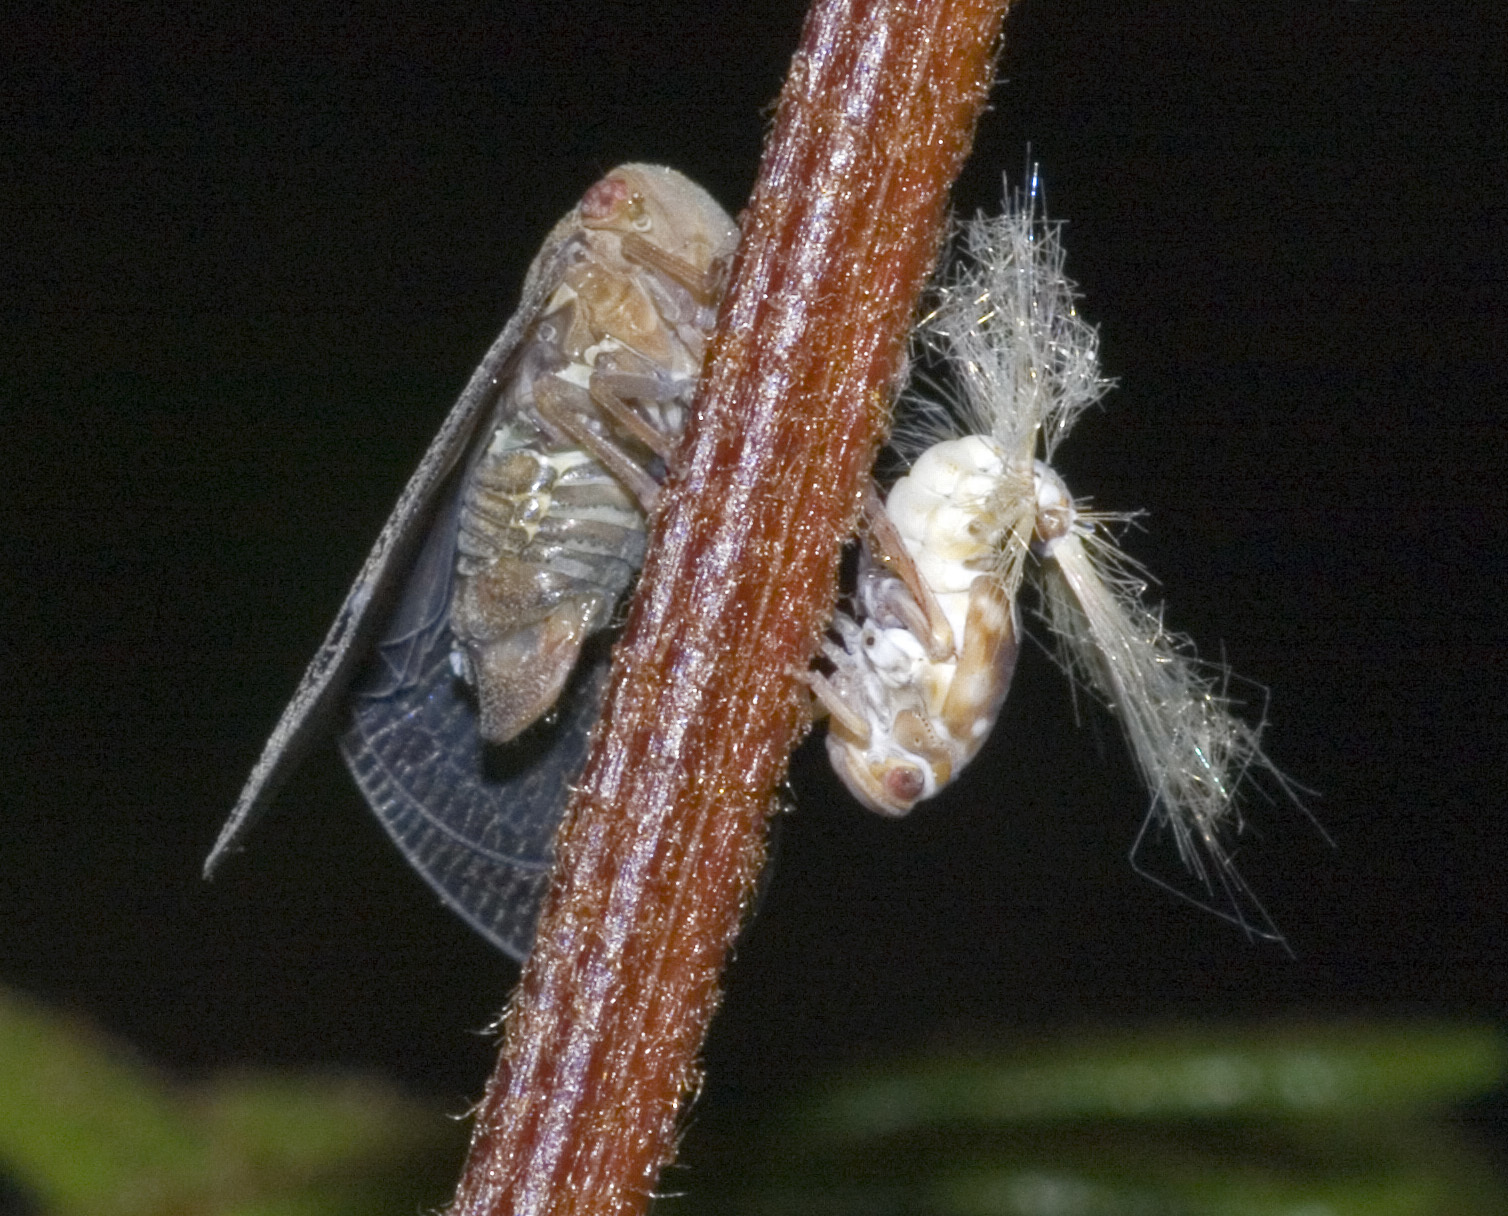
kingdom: Animalia
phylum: Arthropoda
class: Insecta
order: Hemiptera
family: Ricaniidae
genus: Scolypopa
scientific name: Scolypopa australis
